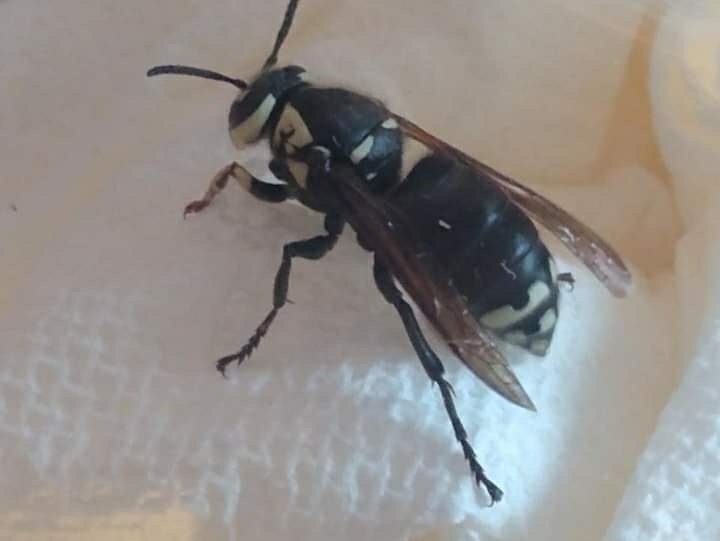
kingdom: Animalia
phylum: Arthropoda
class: Insecta
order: Hymenoptera
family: Vespidae
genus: Dolichovespula
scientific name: Dolichovespula maculata
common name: Bald-faced hornet
